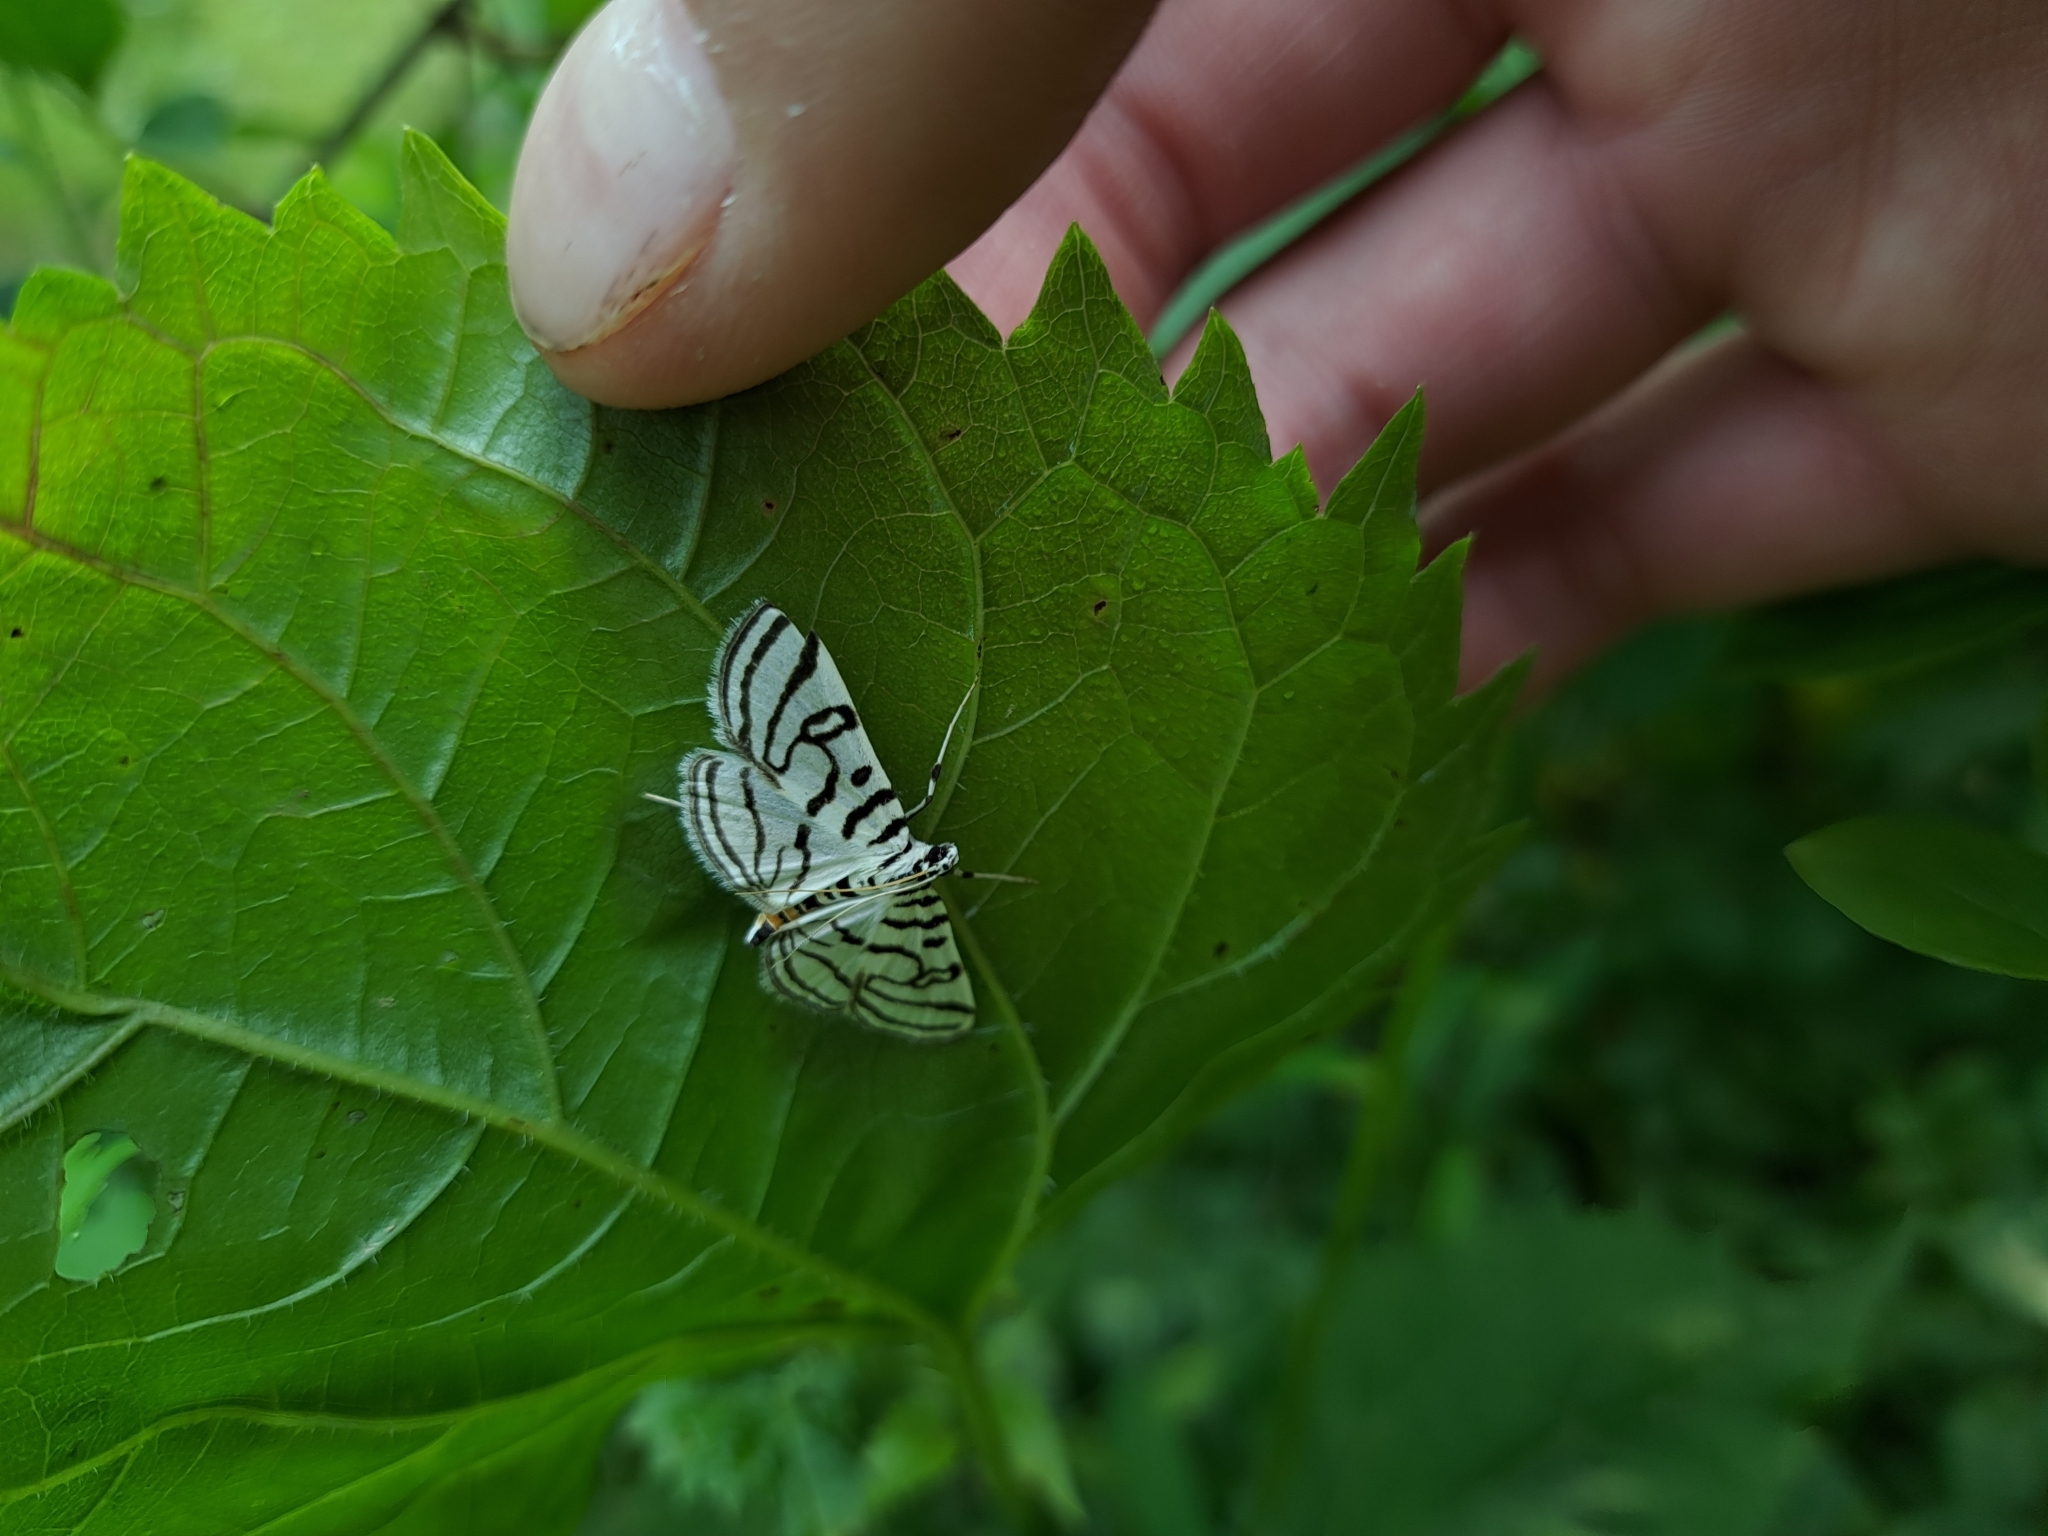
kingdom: Animalia
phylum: Arthropoda
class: Insecta
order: Lepidoptera
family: Crambidae
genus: Conchylodes
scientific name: Conchylodes ovulalis
